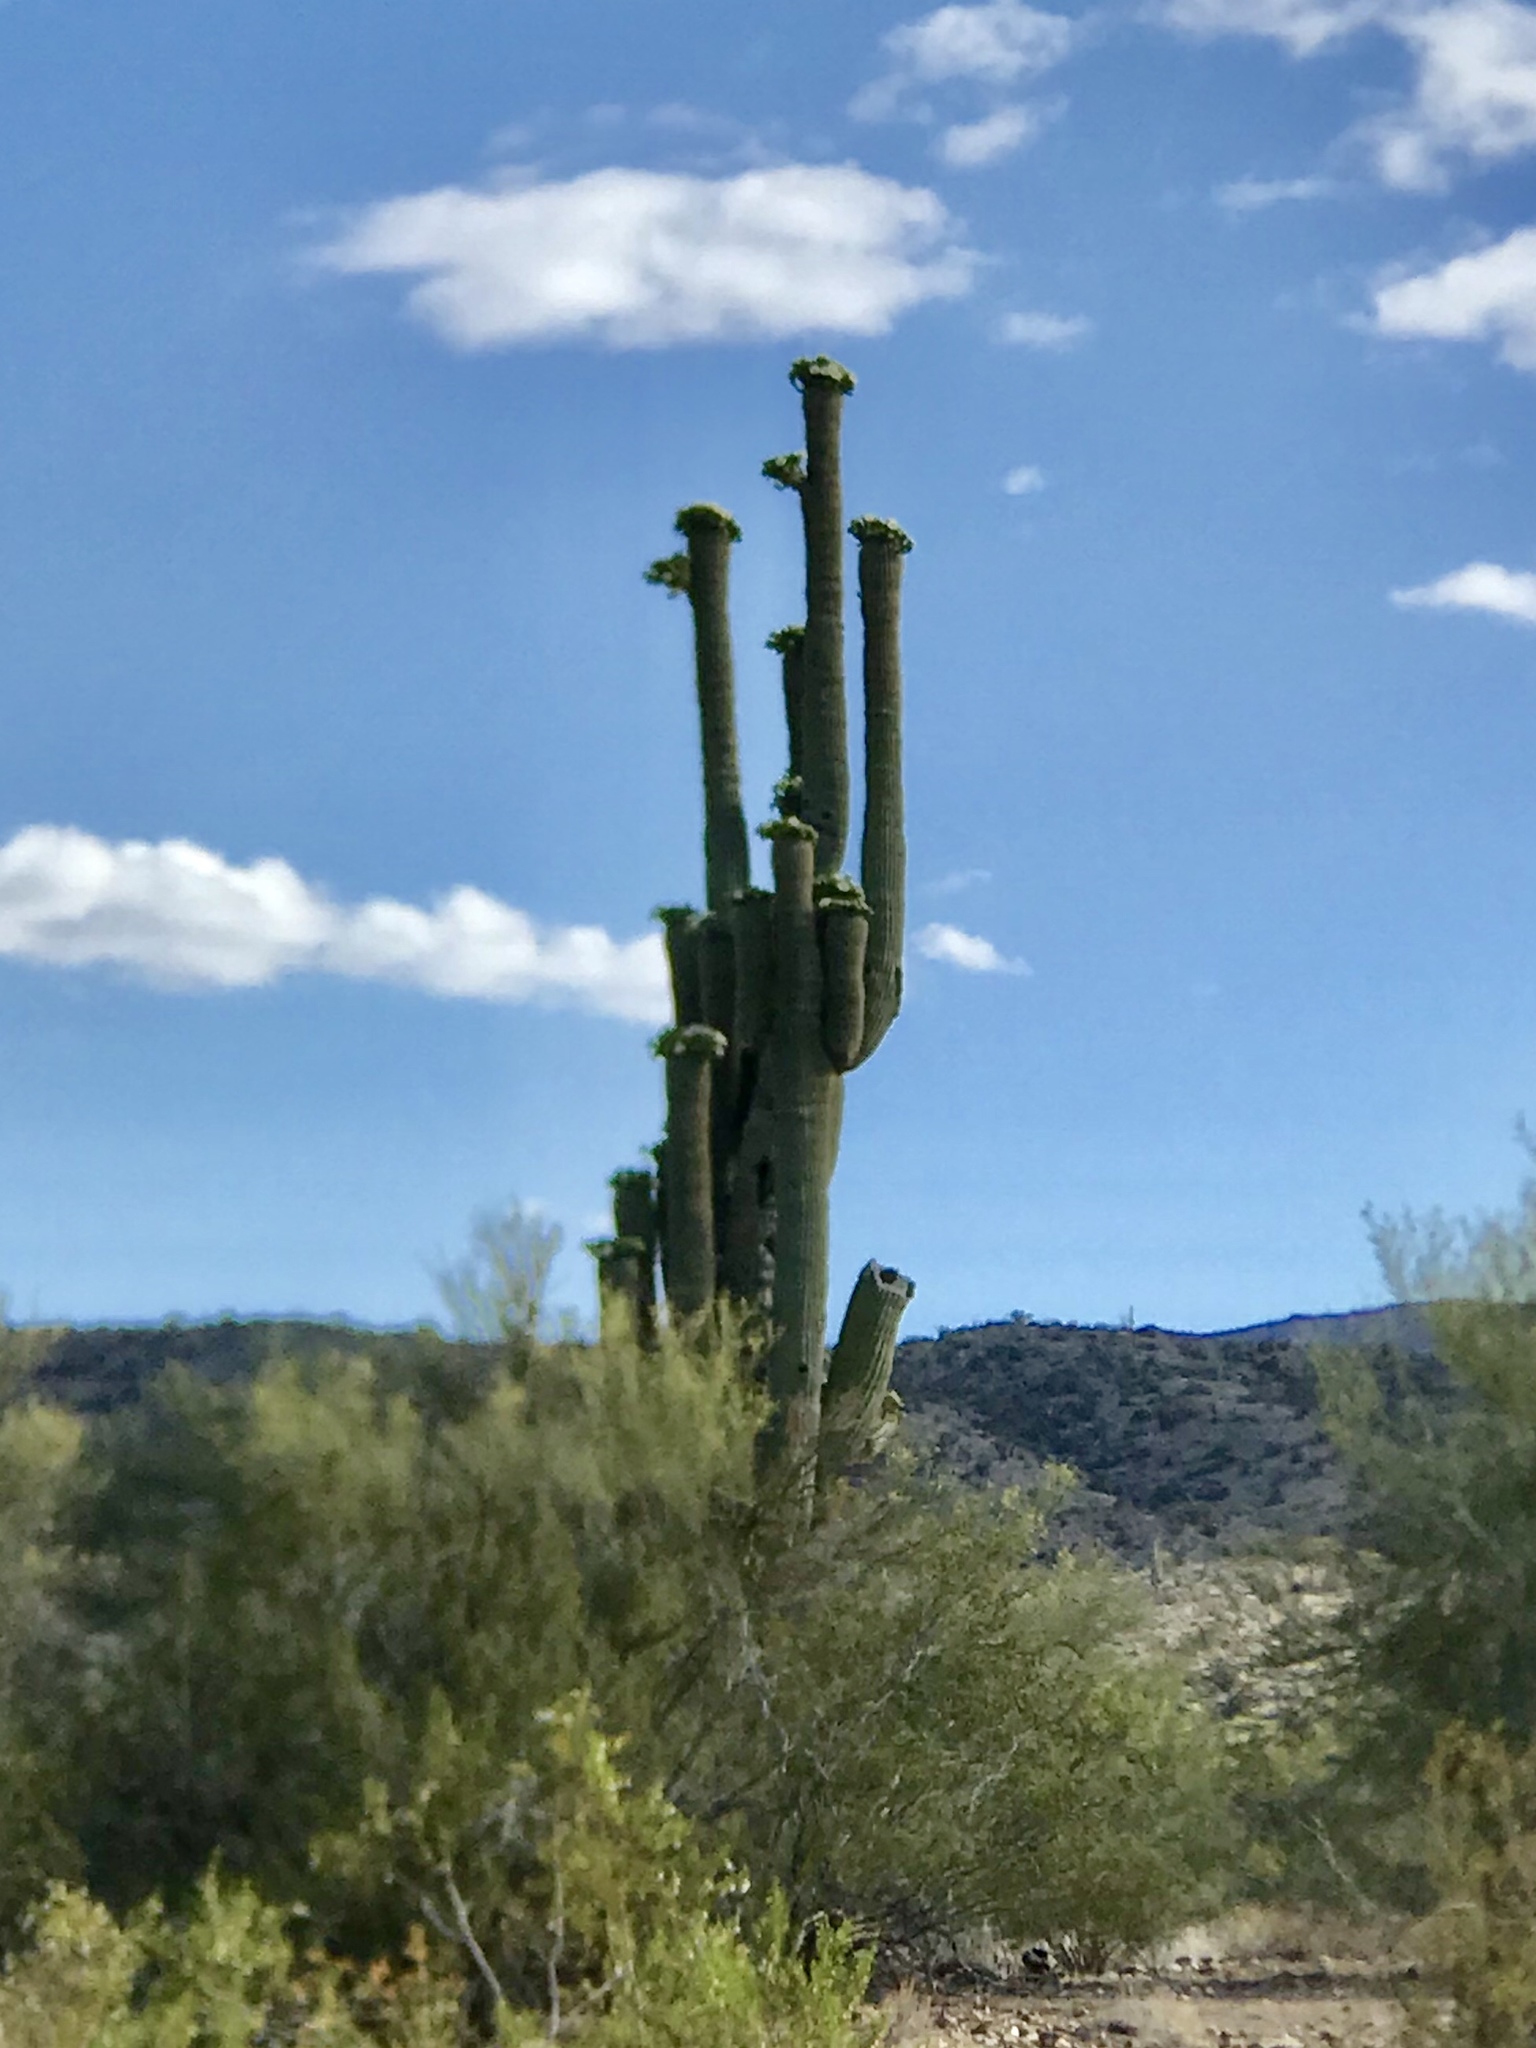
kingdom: Plantae
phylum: Tracheophyta
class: Magnoliopsida
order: Caryophyllales
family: Cactaceae
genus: Carnegiea
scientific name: Carnegiea gigantea
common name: Saguaro
